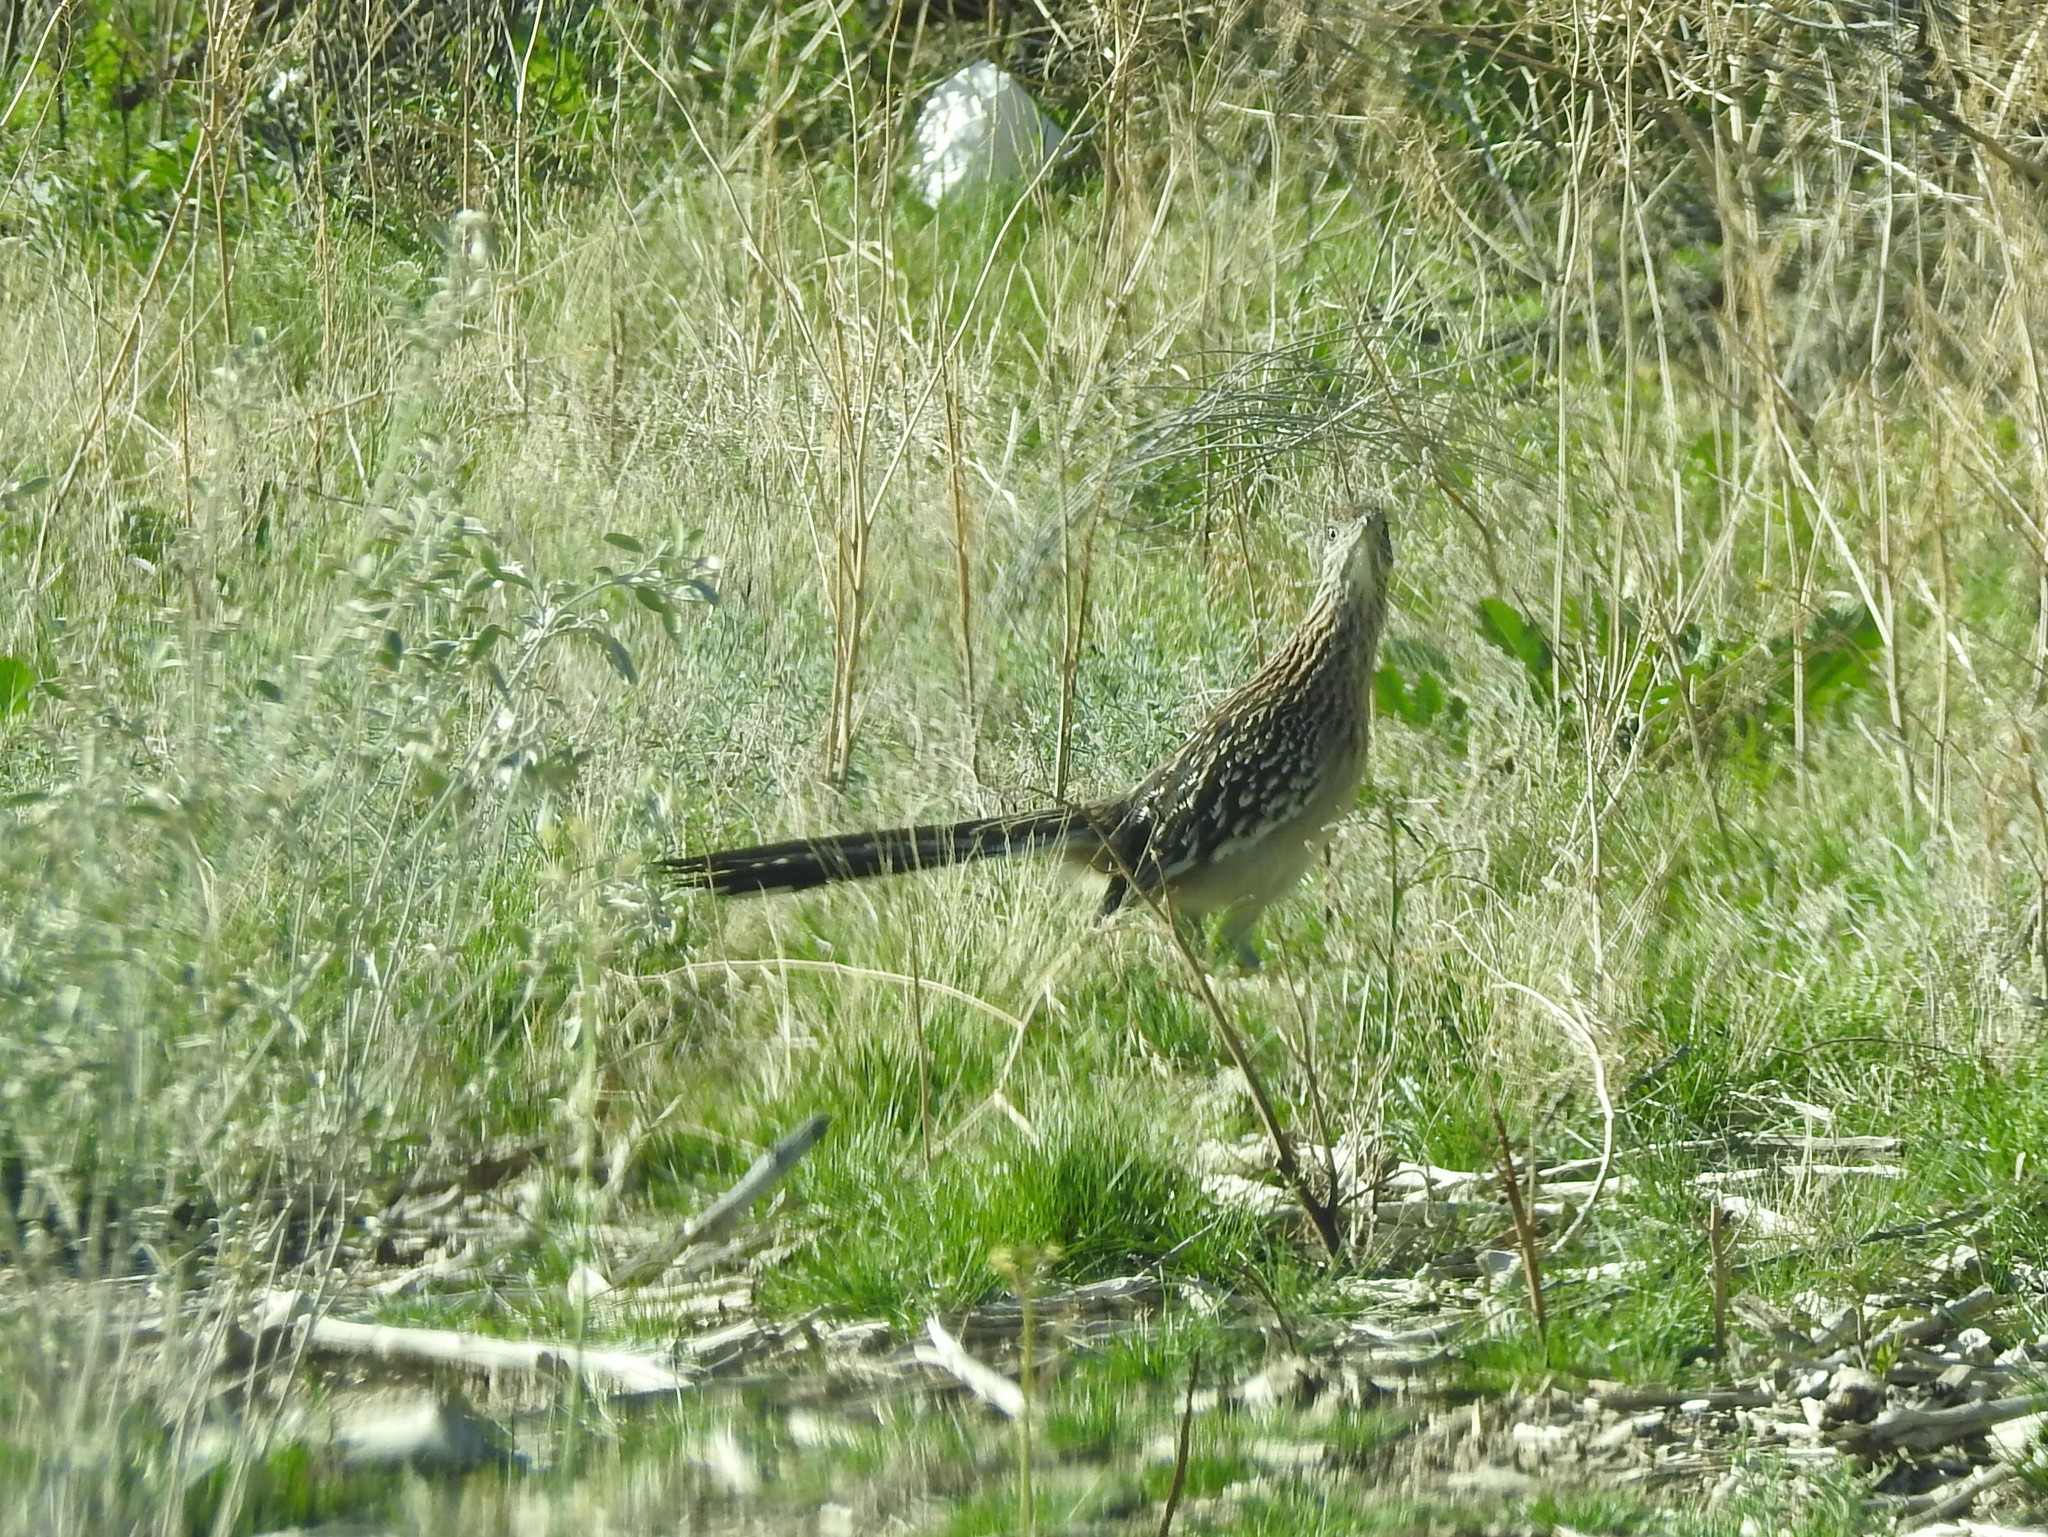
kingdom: Animalia
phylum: Chordata
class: Aves
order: Cuculiformes
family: Cuculidae
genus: Geococcyx
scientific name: Geococcyx californianus
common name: Greater roadrunner
